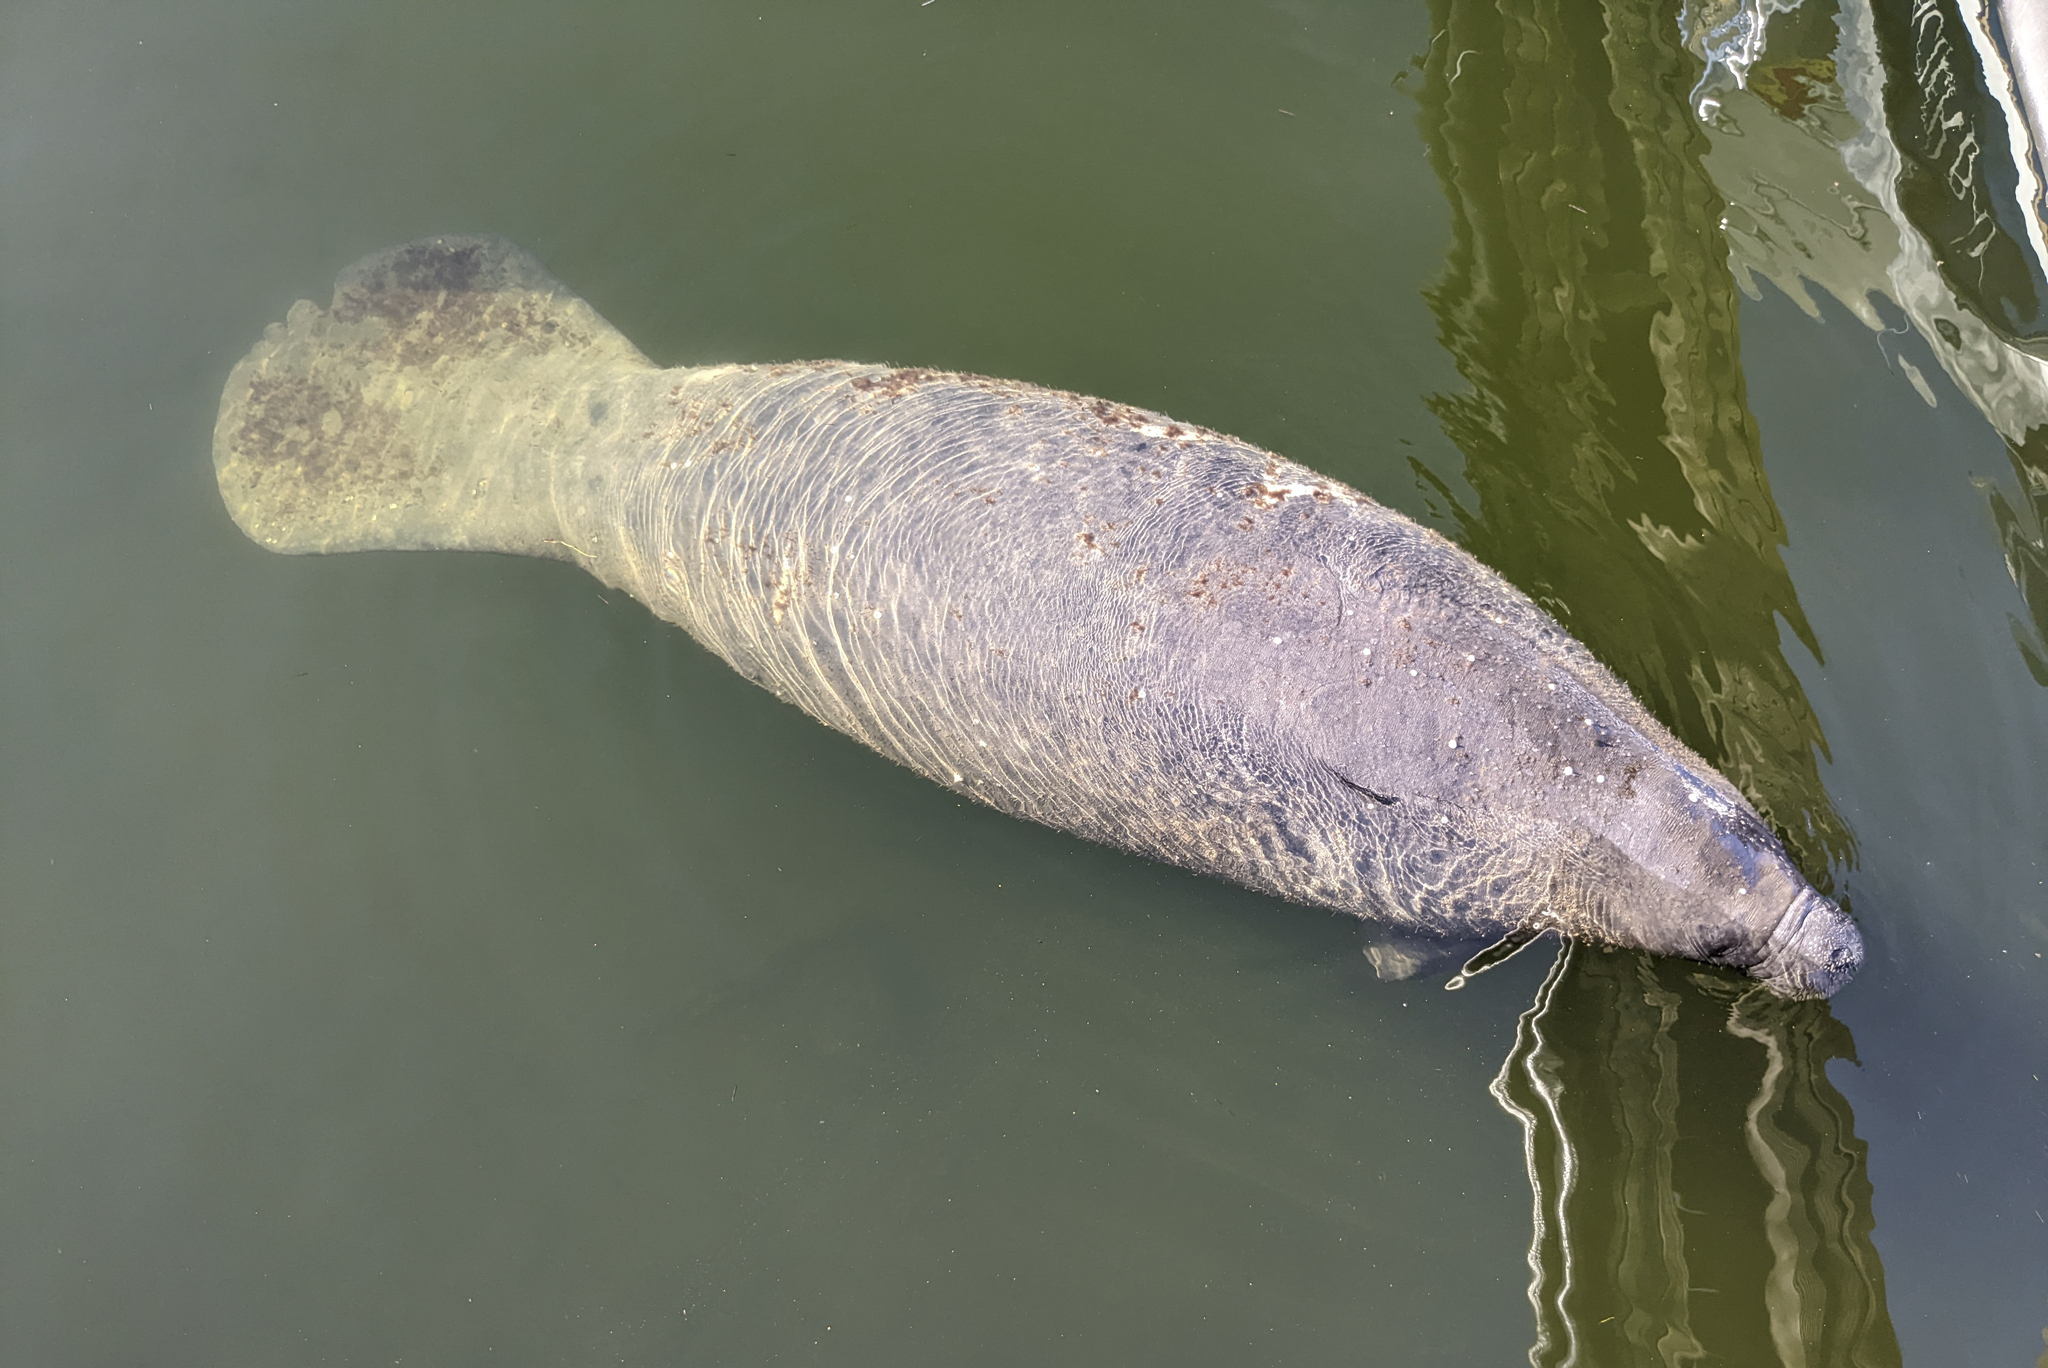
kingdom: Animalia
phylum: Chordata
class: Mammalia
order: Sirenia
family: Trichechidae
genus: Trichechus
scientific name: Trichechus manatus
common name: West indian manatee
